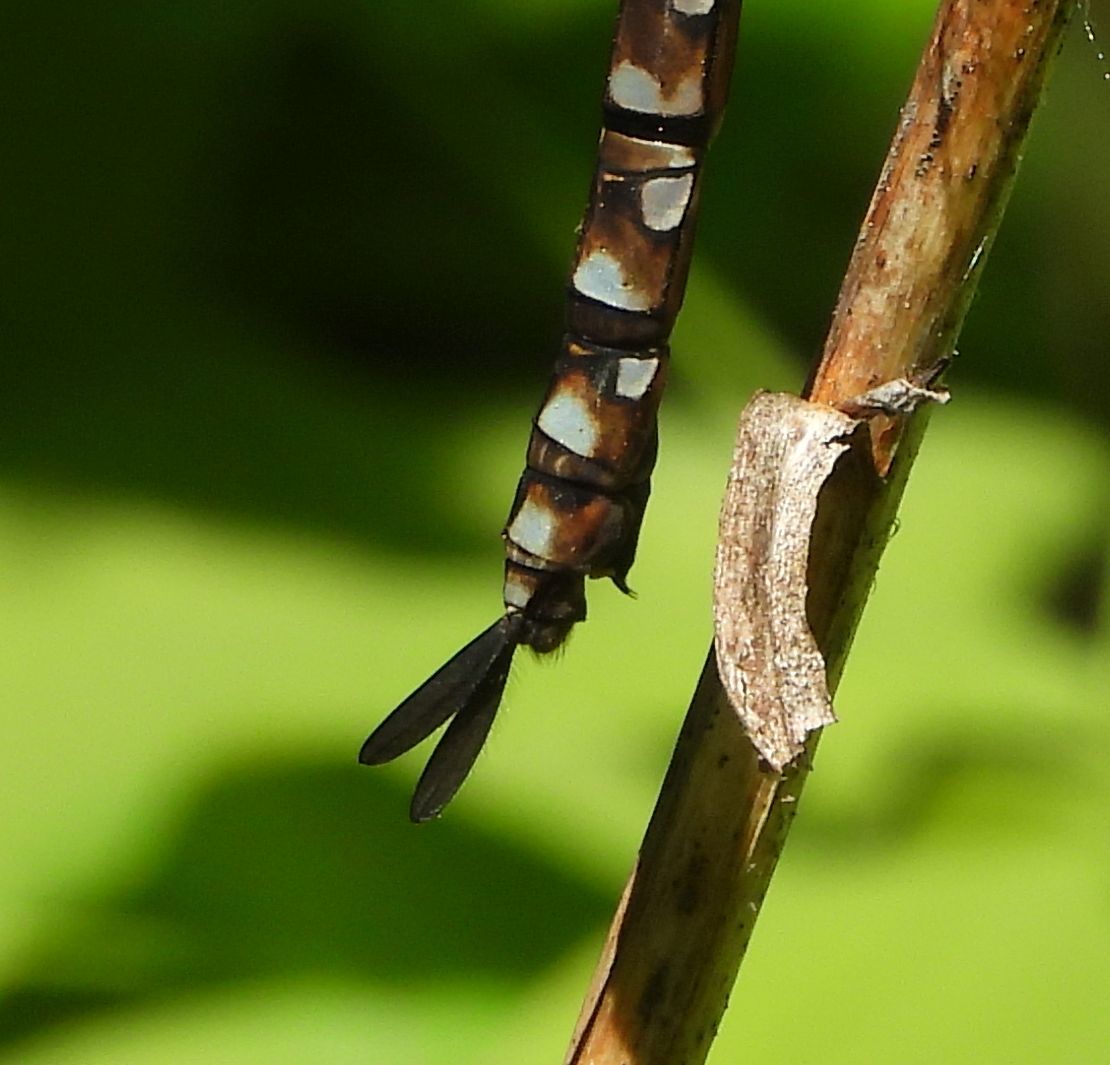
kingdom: Animalia
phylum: Arthropoda
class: Insecta
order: Odonata
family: Aeshnidae
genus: Aeshna
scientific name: Aeshna canadensis
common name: Canada darner
